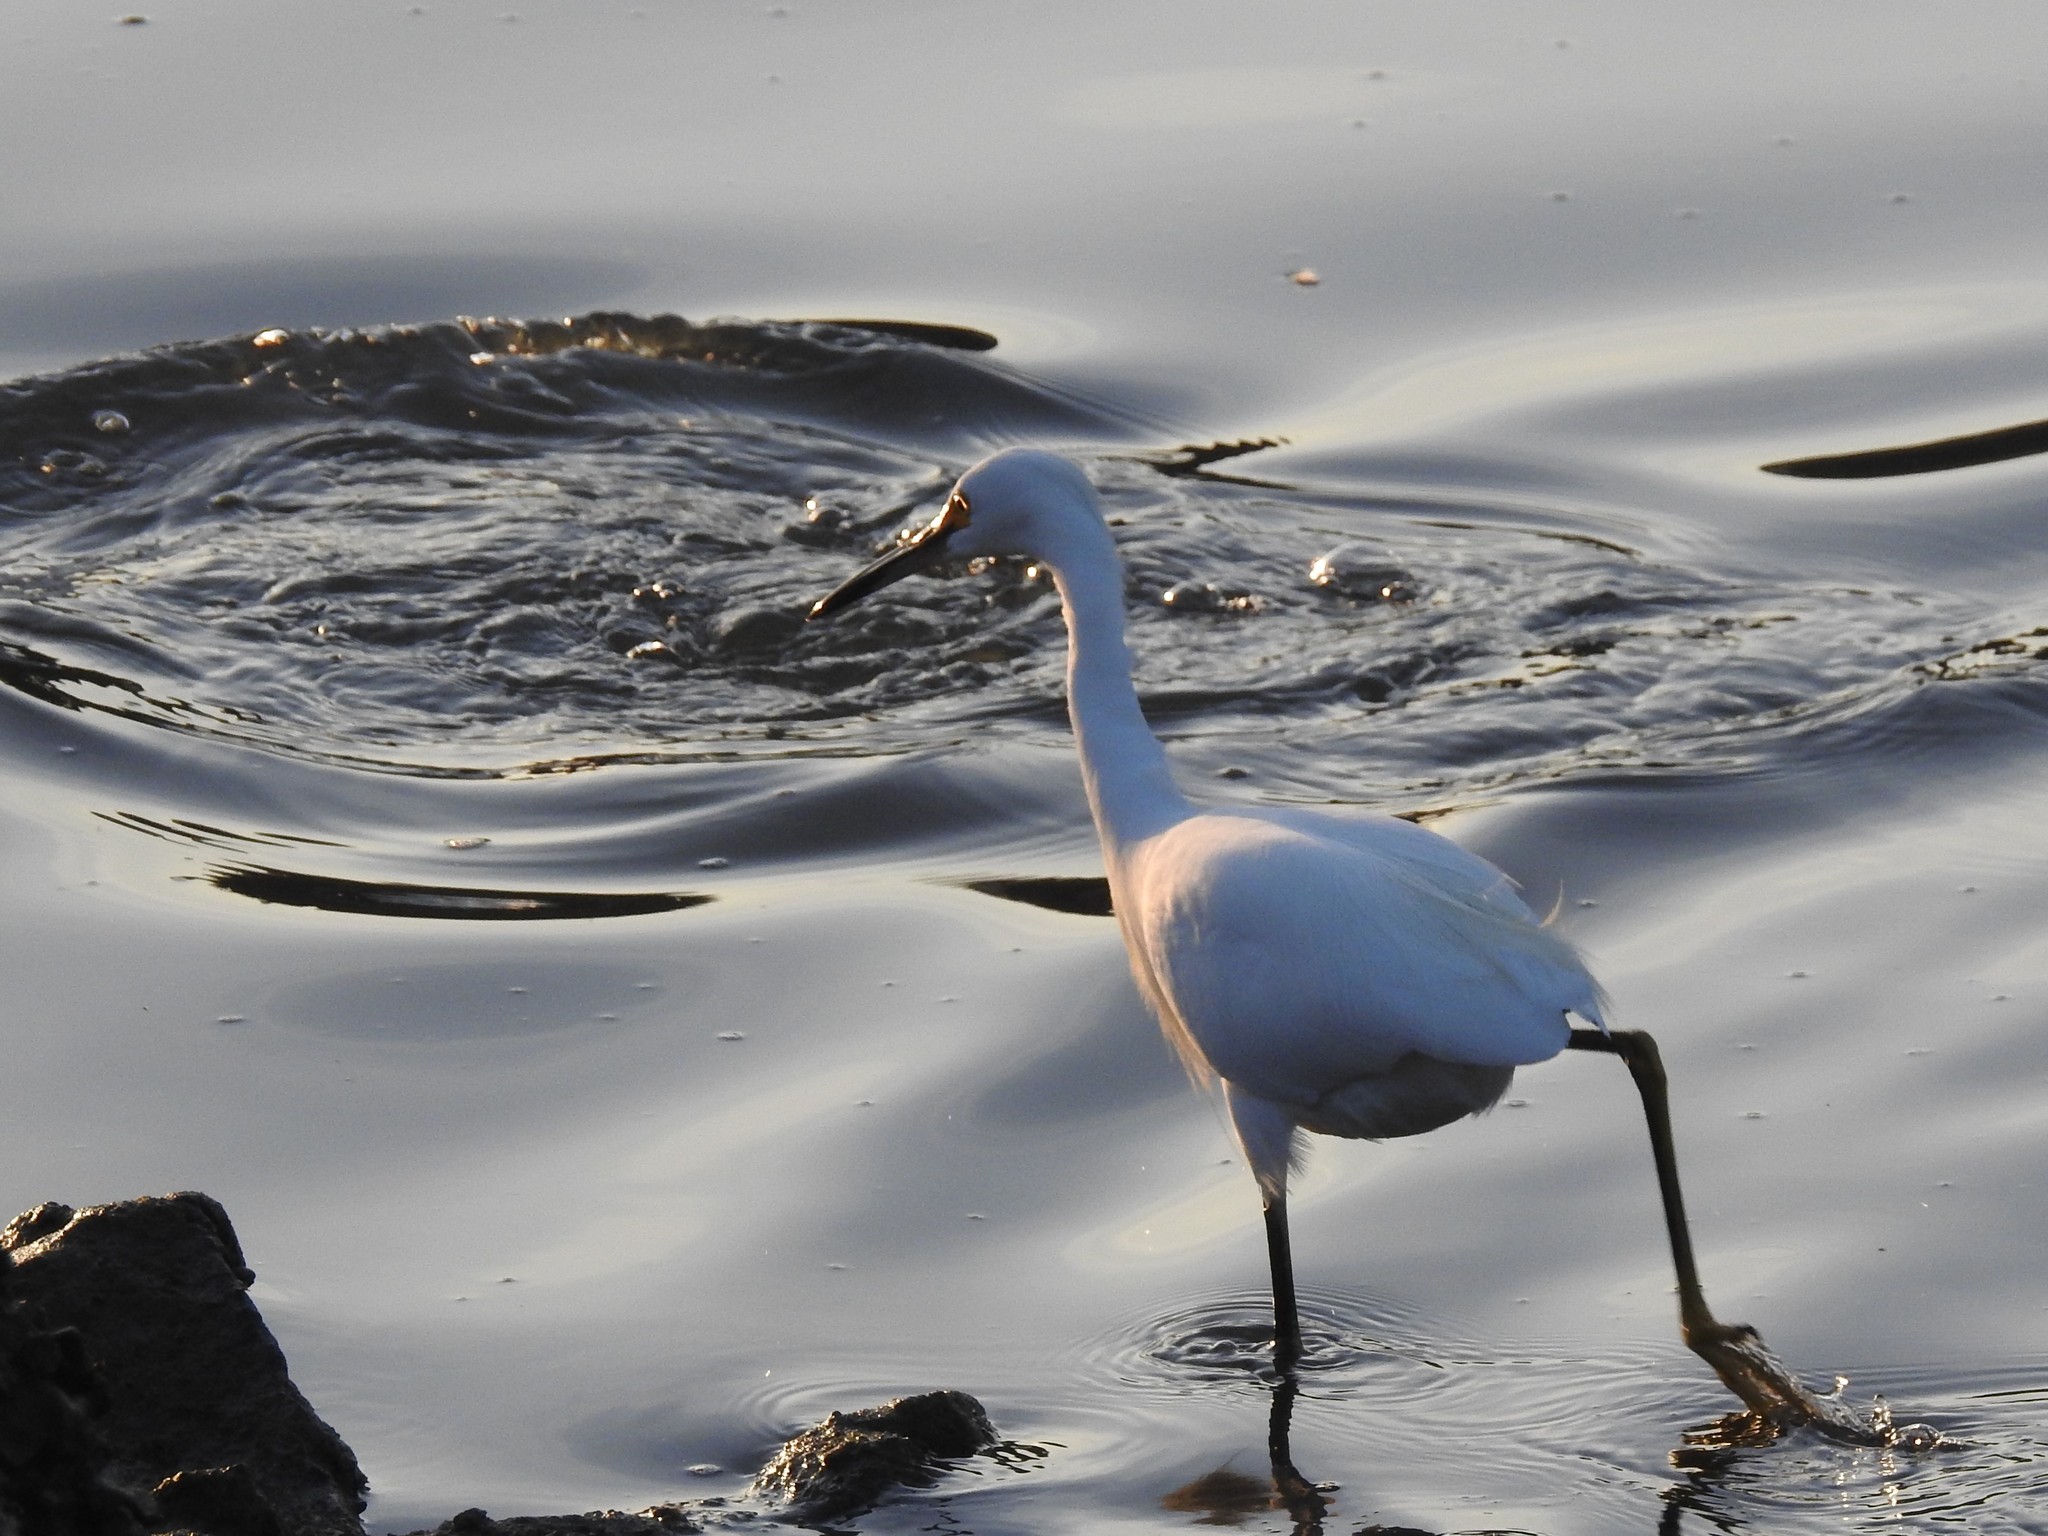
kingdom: Animalia
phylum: Chordata
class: Aves
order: Pelecaniformes
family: Ardeidae
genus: Egretta
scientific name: Egretta thula
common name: Snowy egret
